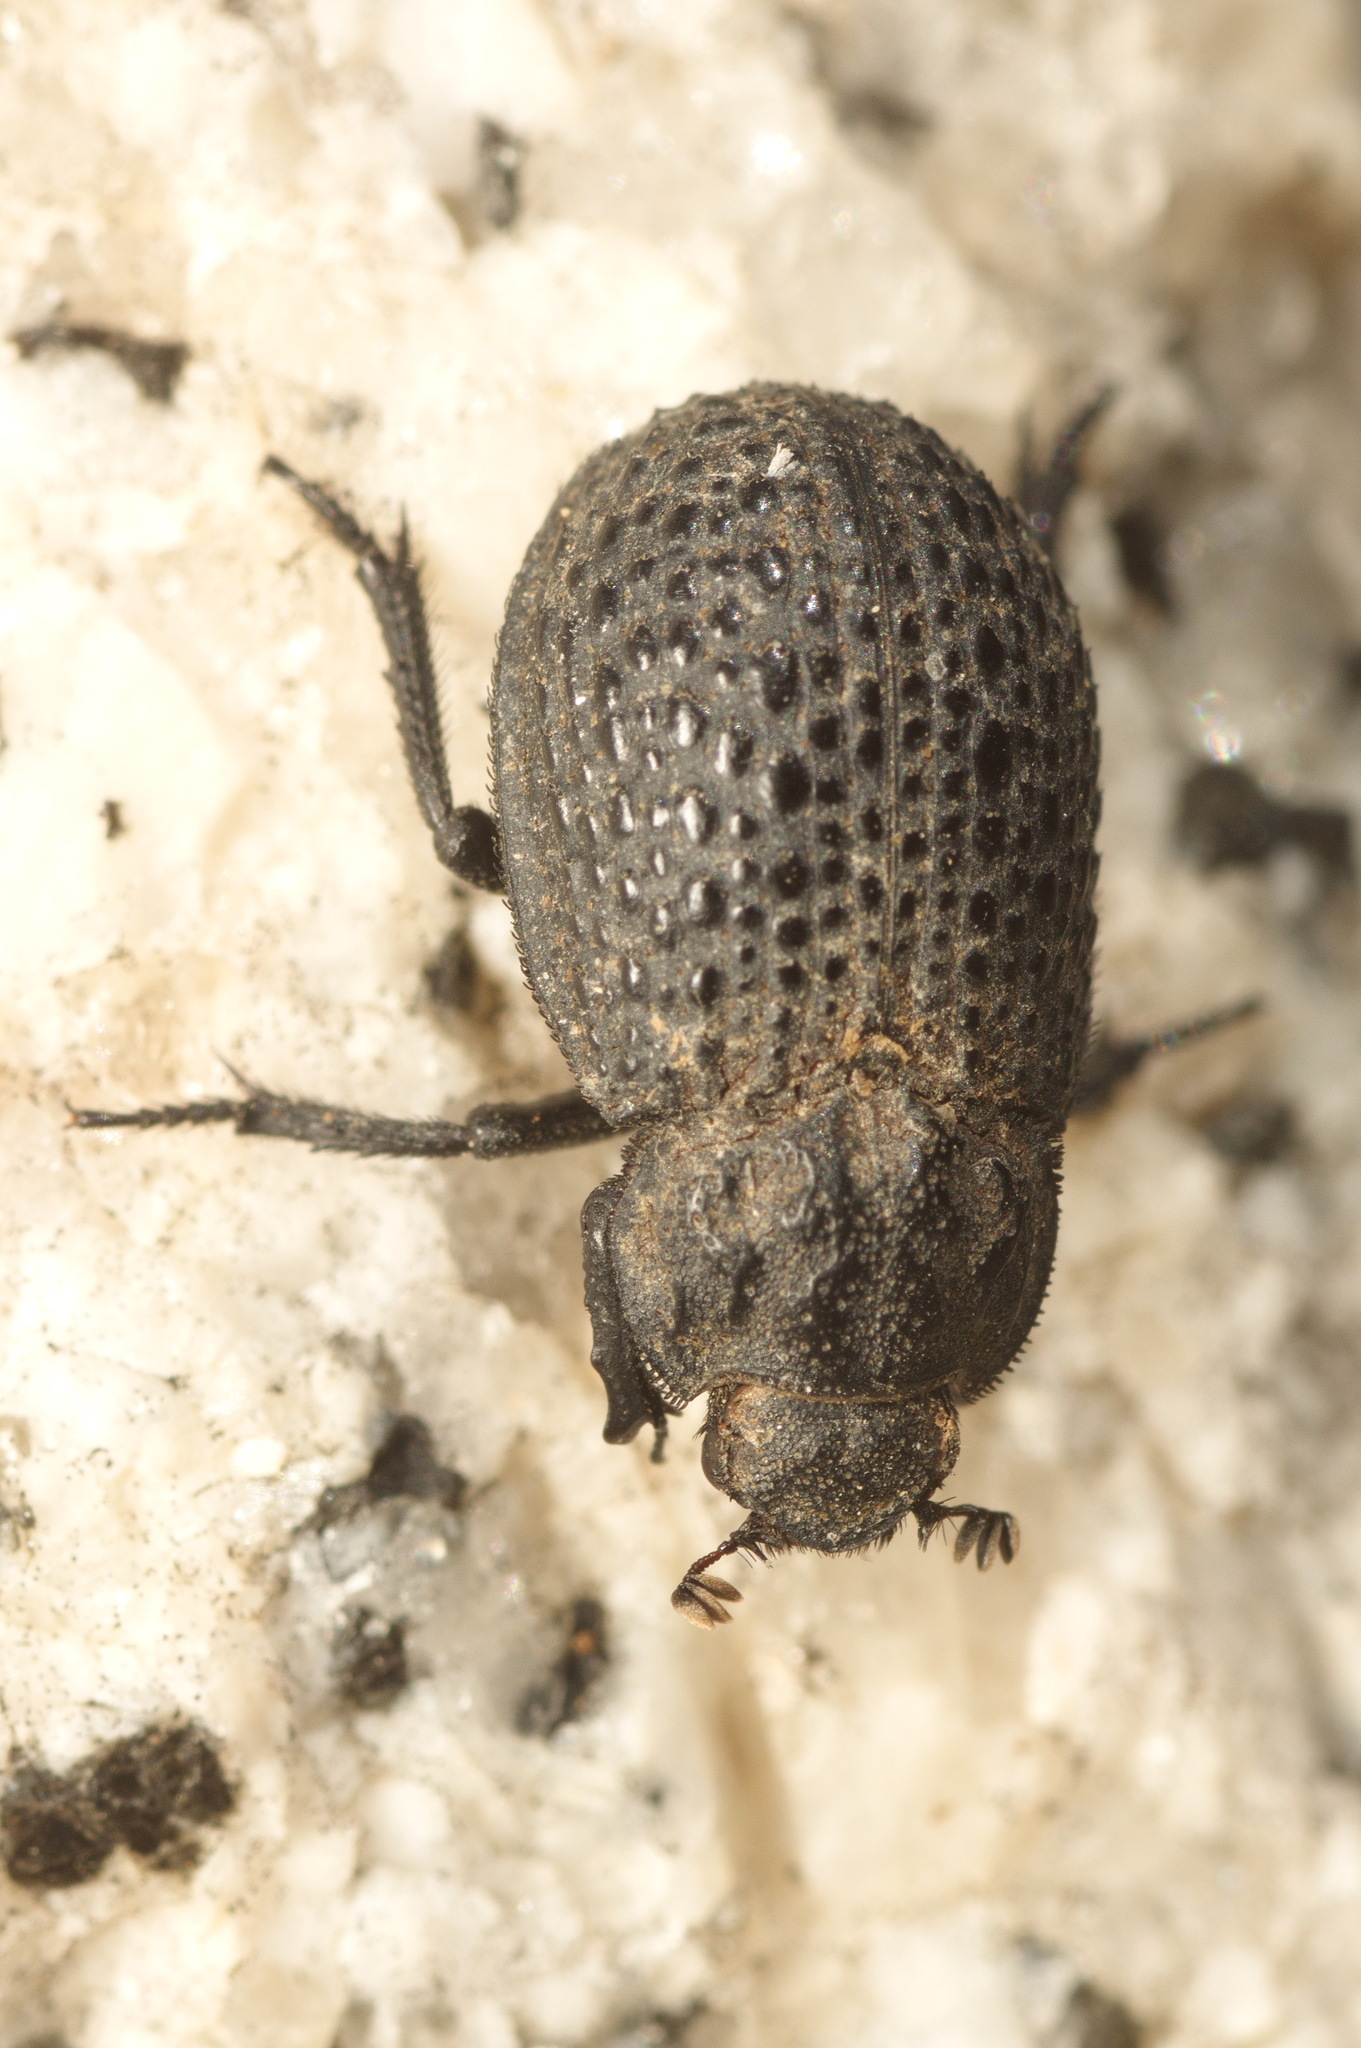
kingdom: Animalia
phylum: Arthropoda
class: Insecta
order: Coleoptera
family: Trogidae
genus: Trox
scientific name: Trox perlatus
